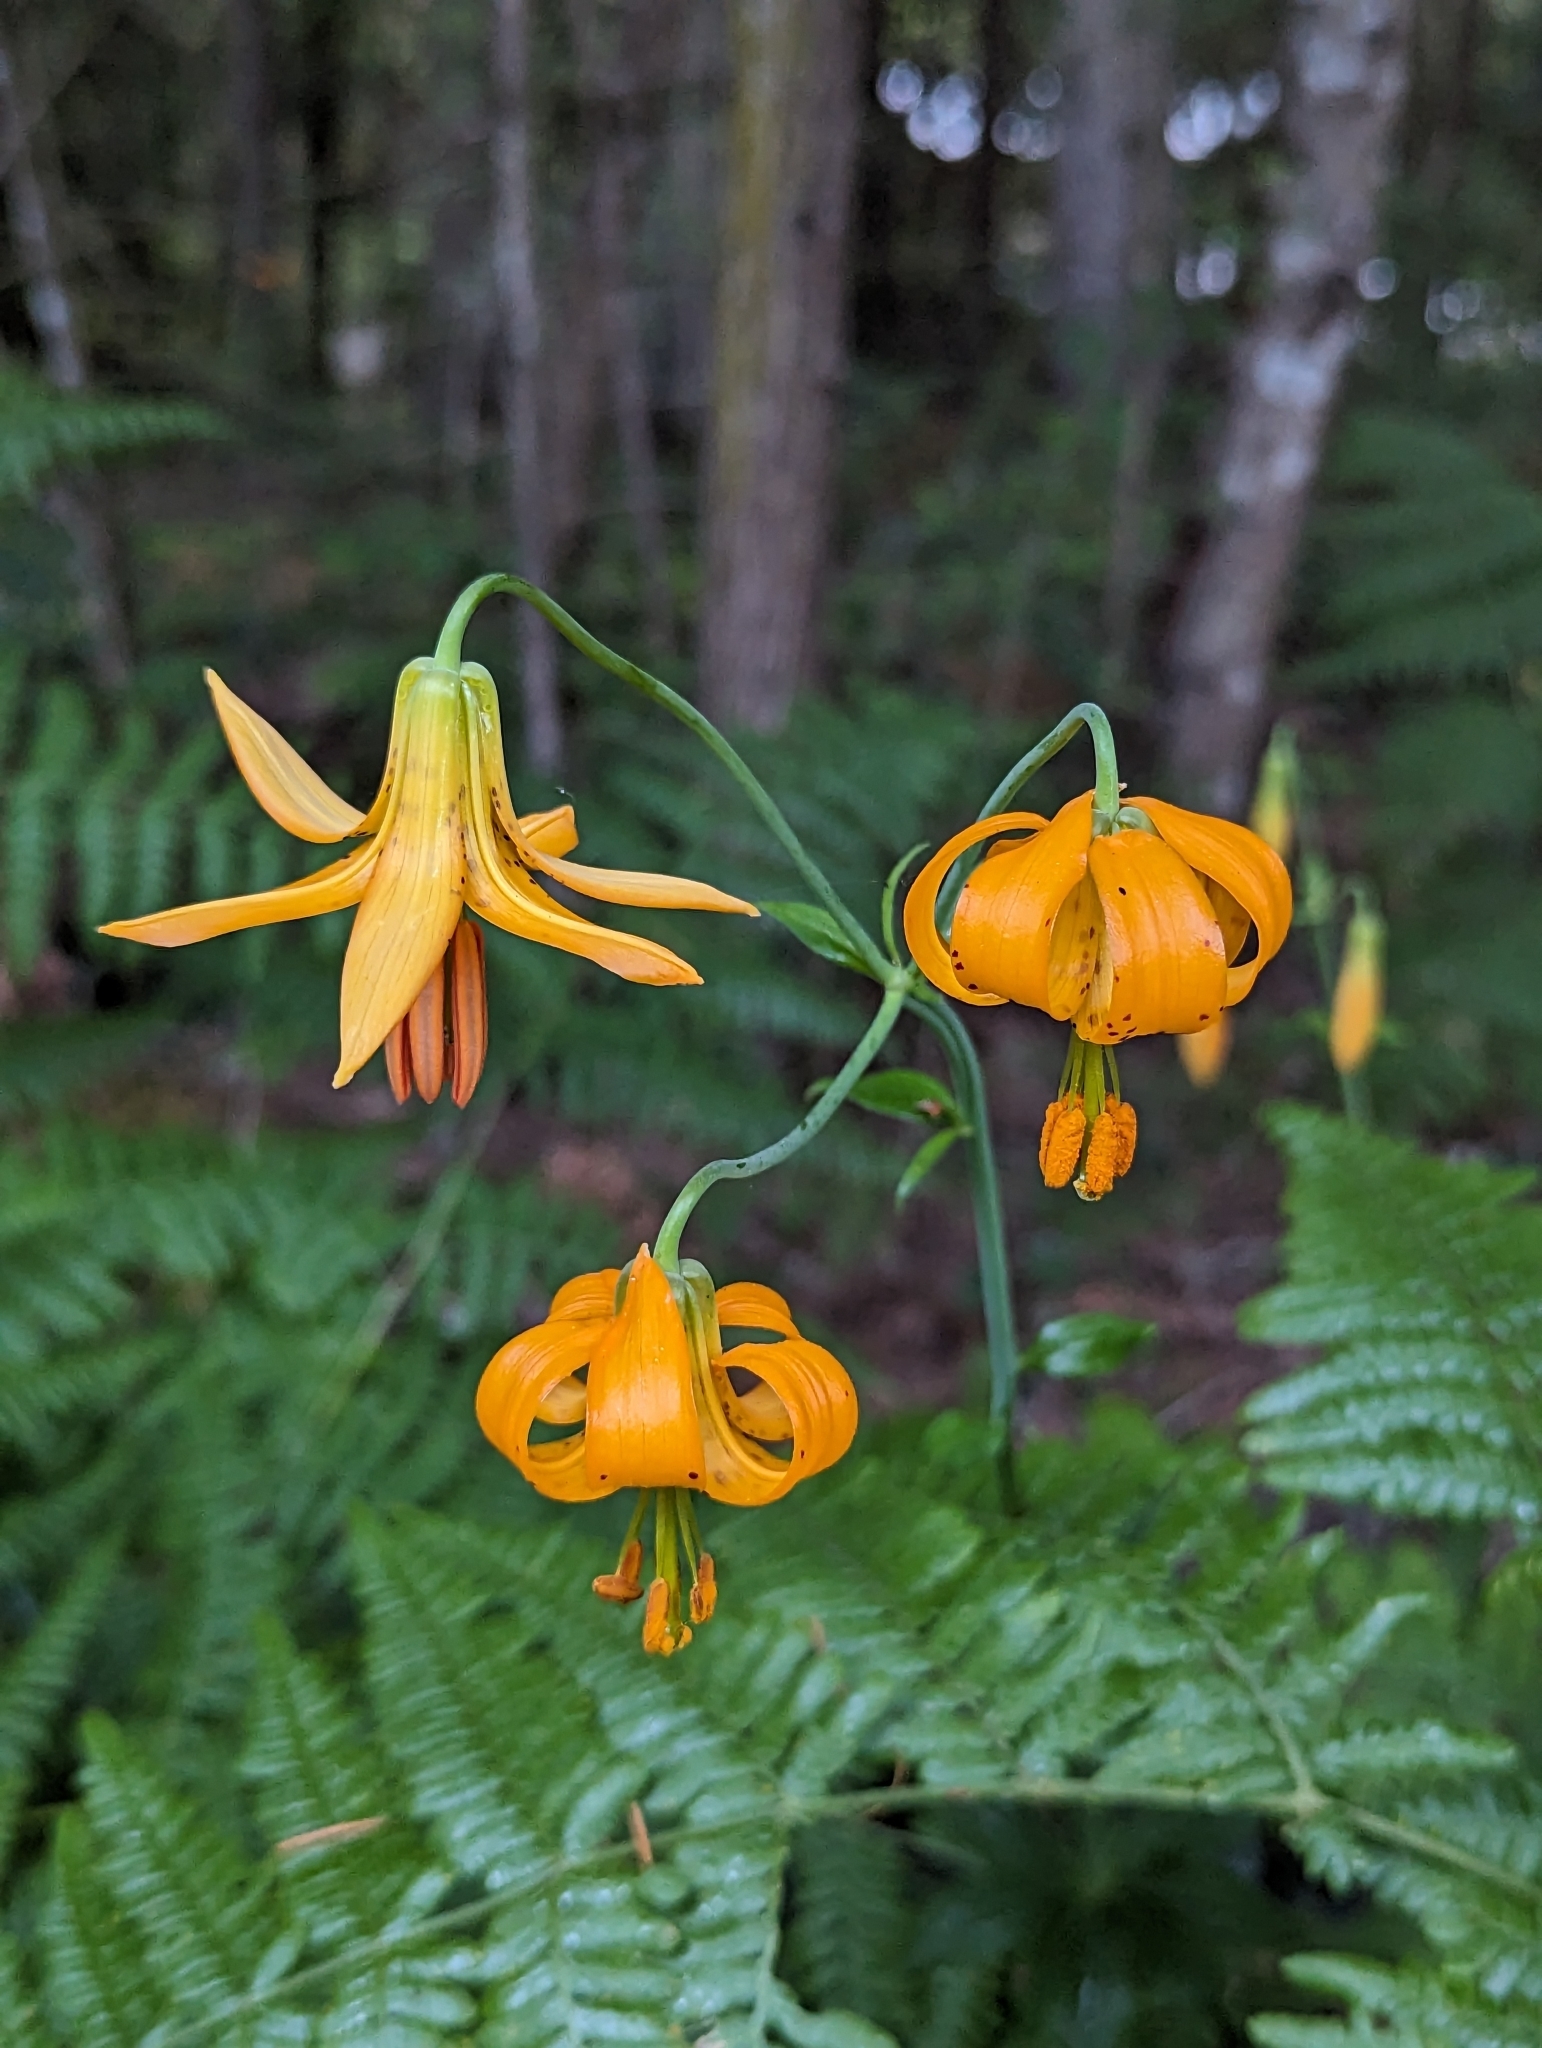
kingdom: Plantae
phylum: Tracheophyta
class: Liliopsida
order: Liliales
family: Liliaceae
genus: Lilium
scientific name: Lilium columbianum
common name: Columbia lily
